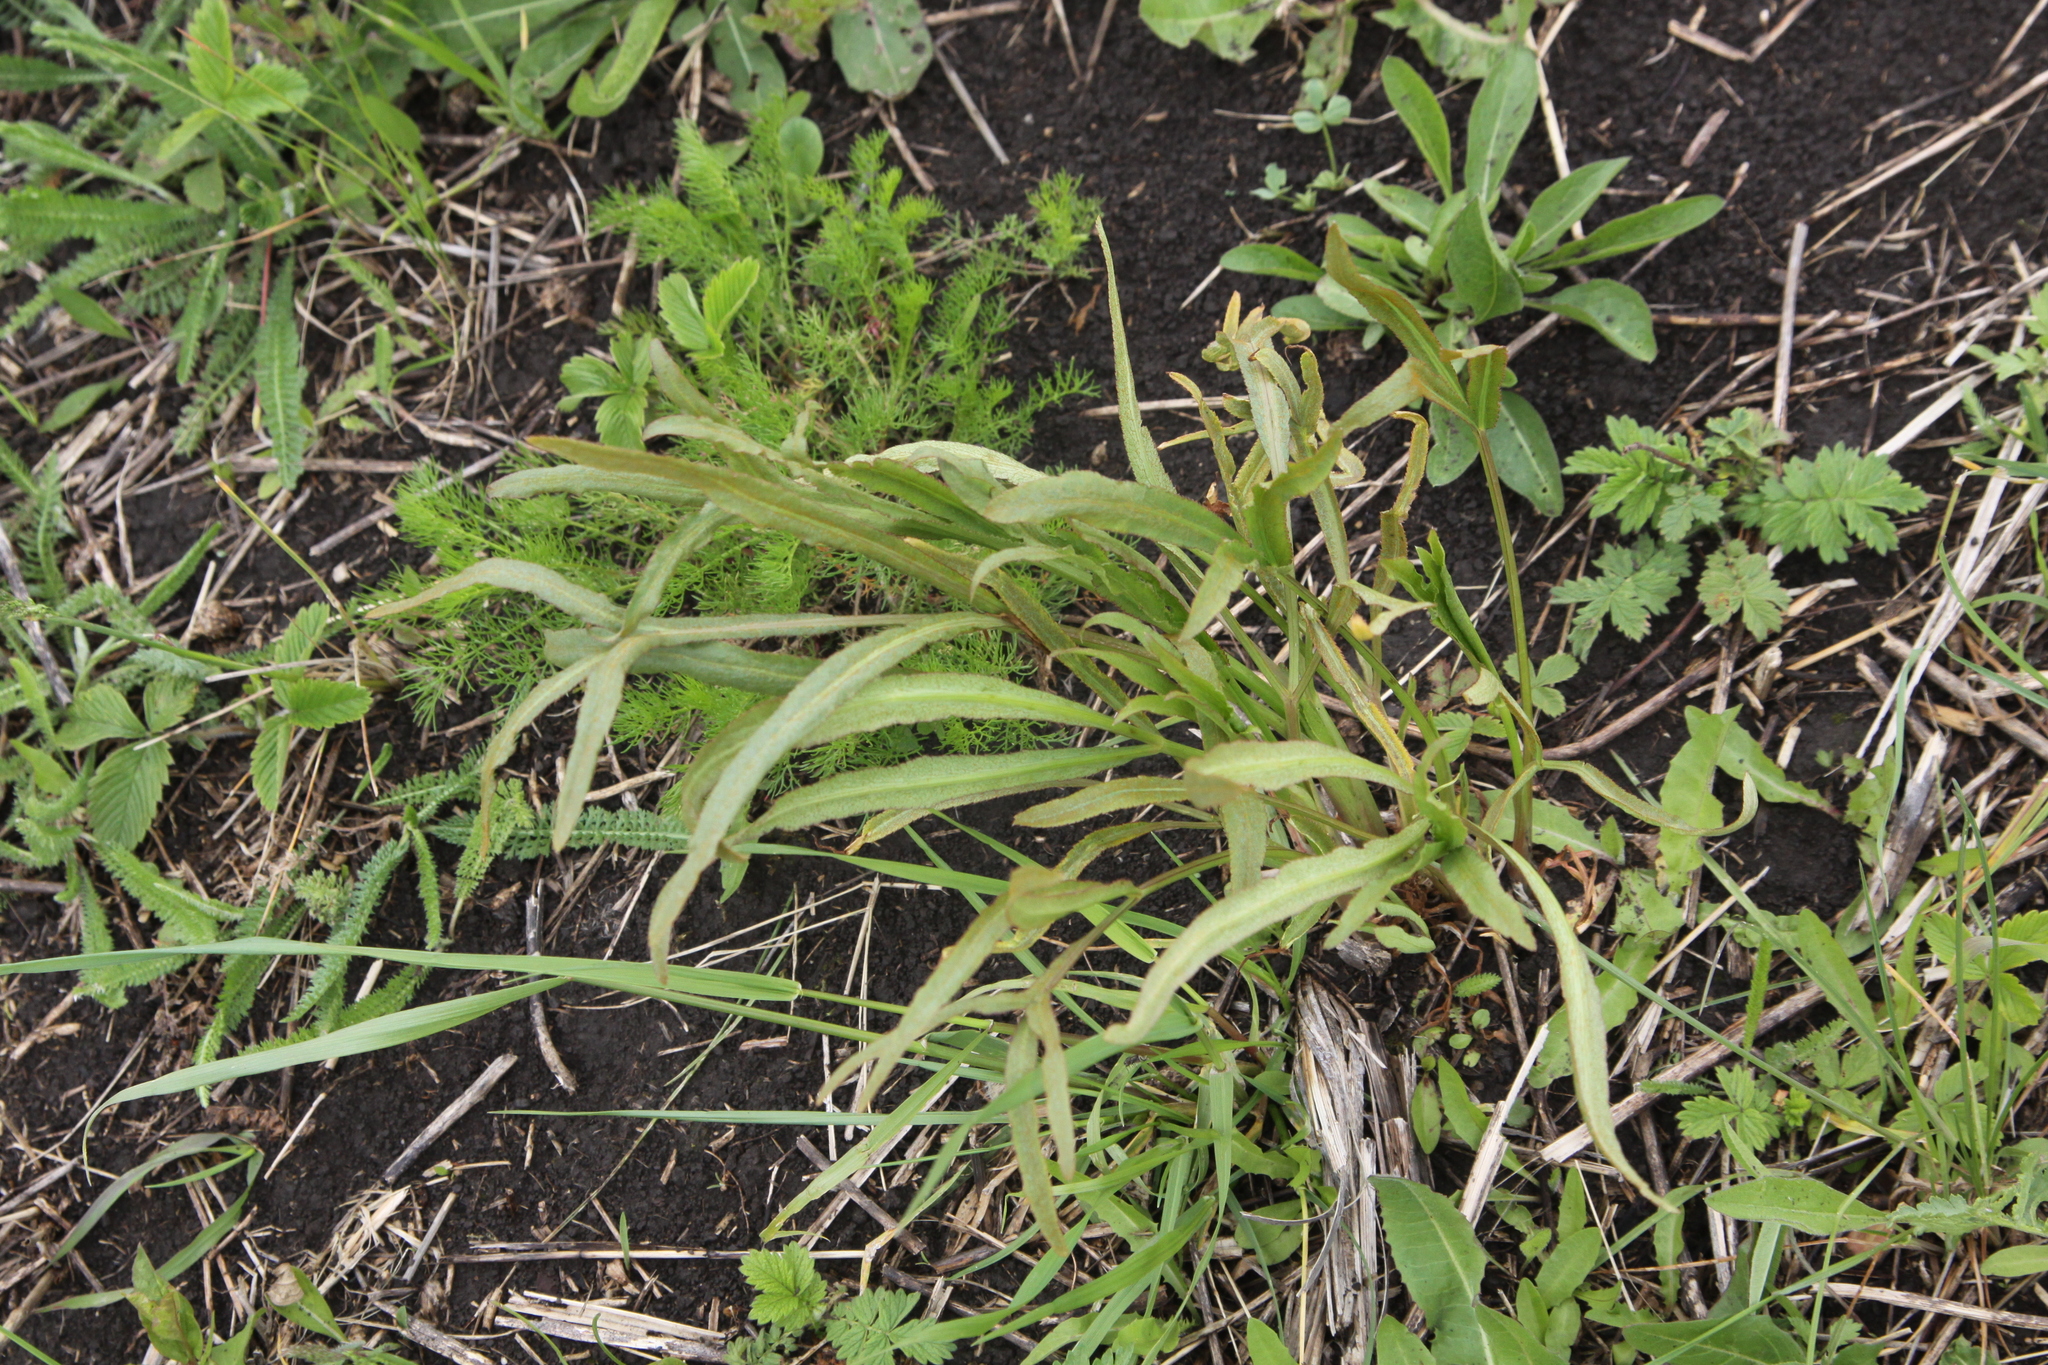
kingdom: Plantae
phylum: Tracheophyta
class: Magnoliopsida
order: Apiales
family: Apiaceae
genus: Falcaria
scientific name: Falcaria vulgaris
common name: Longleaf
